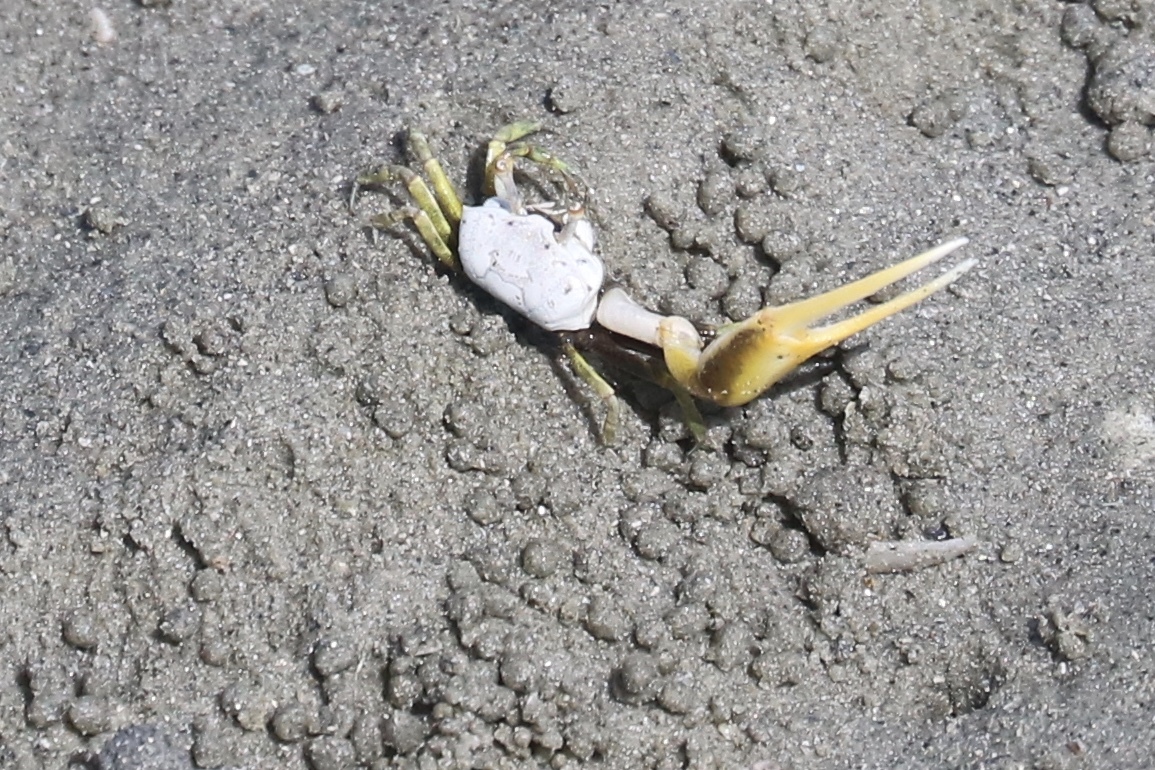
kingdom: Animalia
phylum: Arthropoda
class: Malacostraca
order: Decapoda
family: Ocypodidae
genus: Leptuca
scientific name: Leptuca leptodactyla
